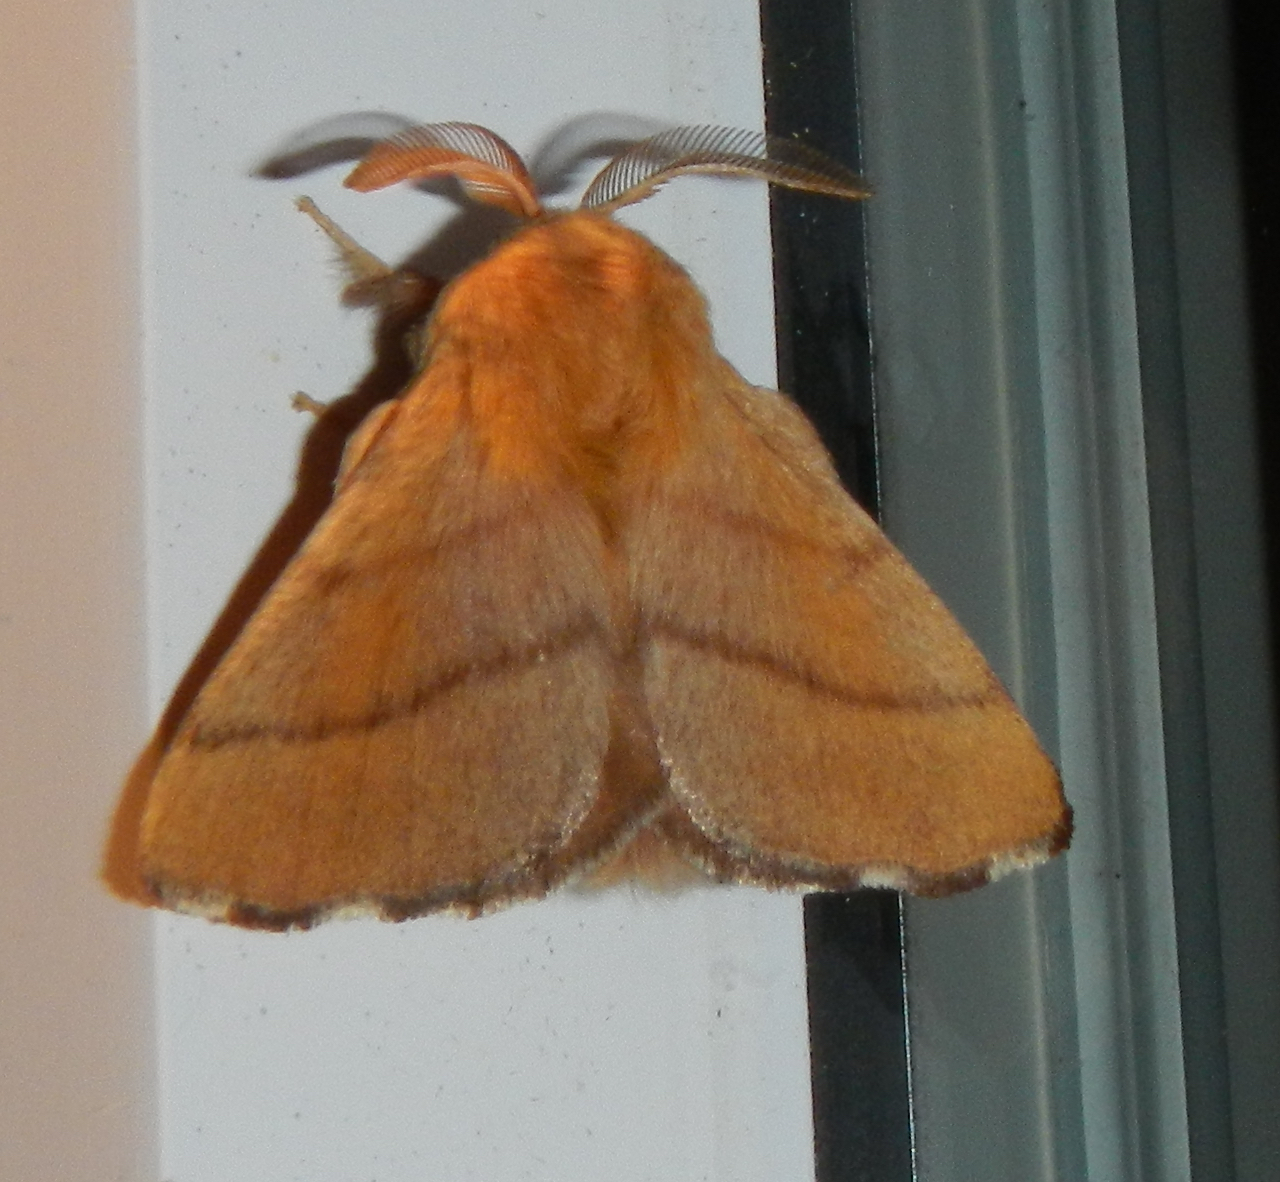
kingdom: Animalia
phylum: Arthropoda
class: Insecta
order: Lepidoptera
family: Lasiocampidae
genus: Malacosoma
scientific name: Malacosoma disstria
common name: Forest tent caterpillar
